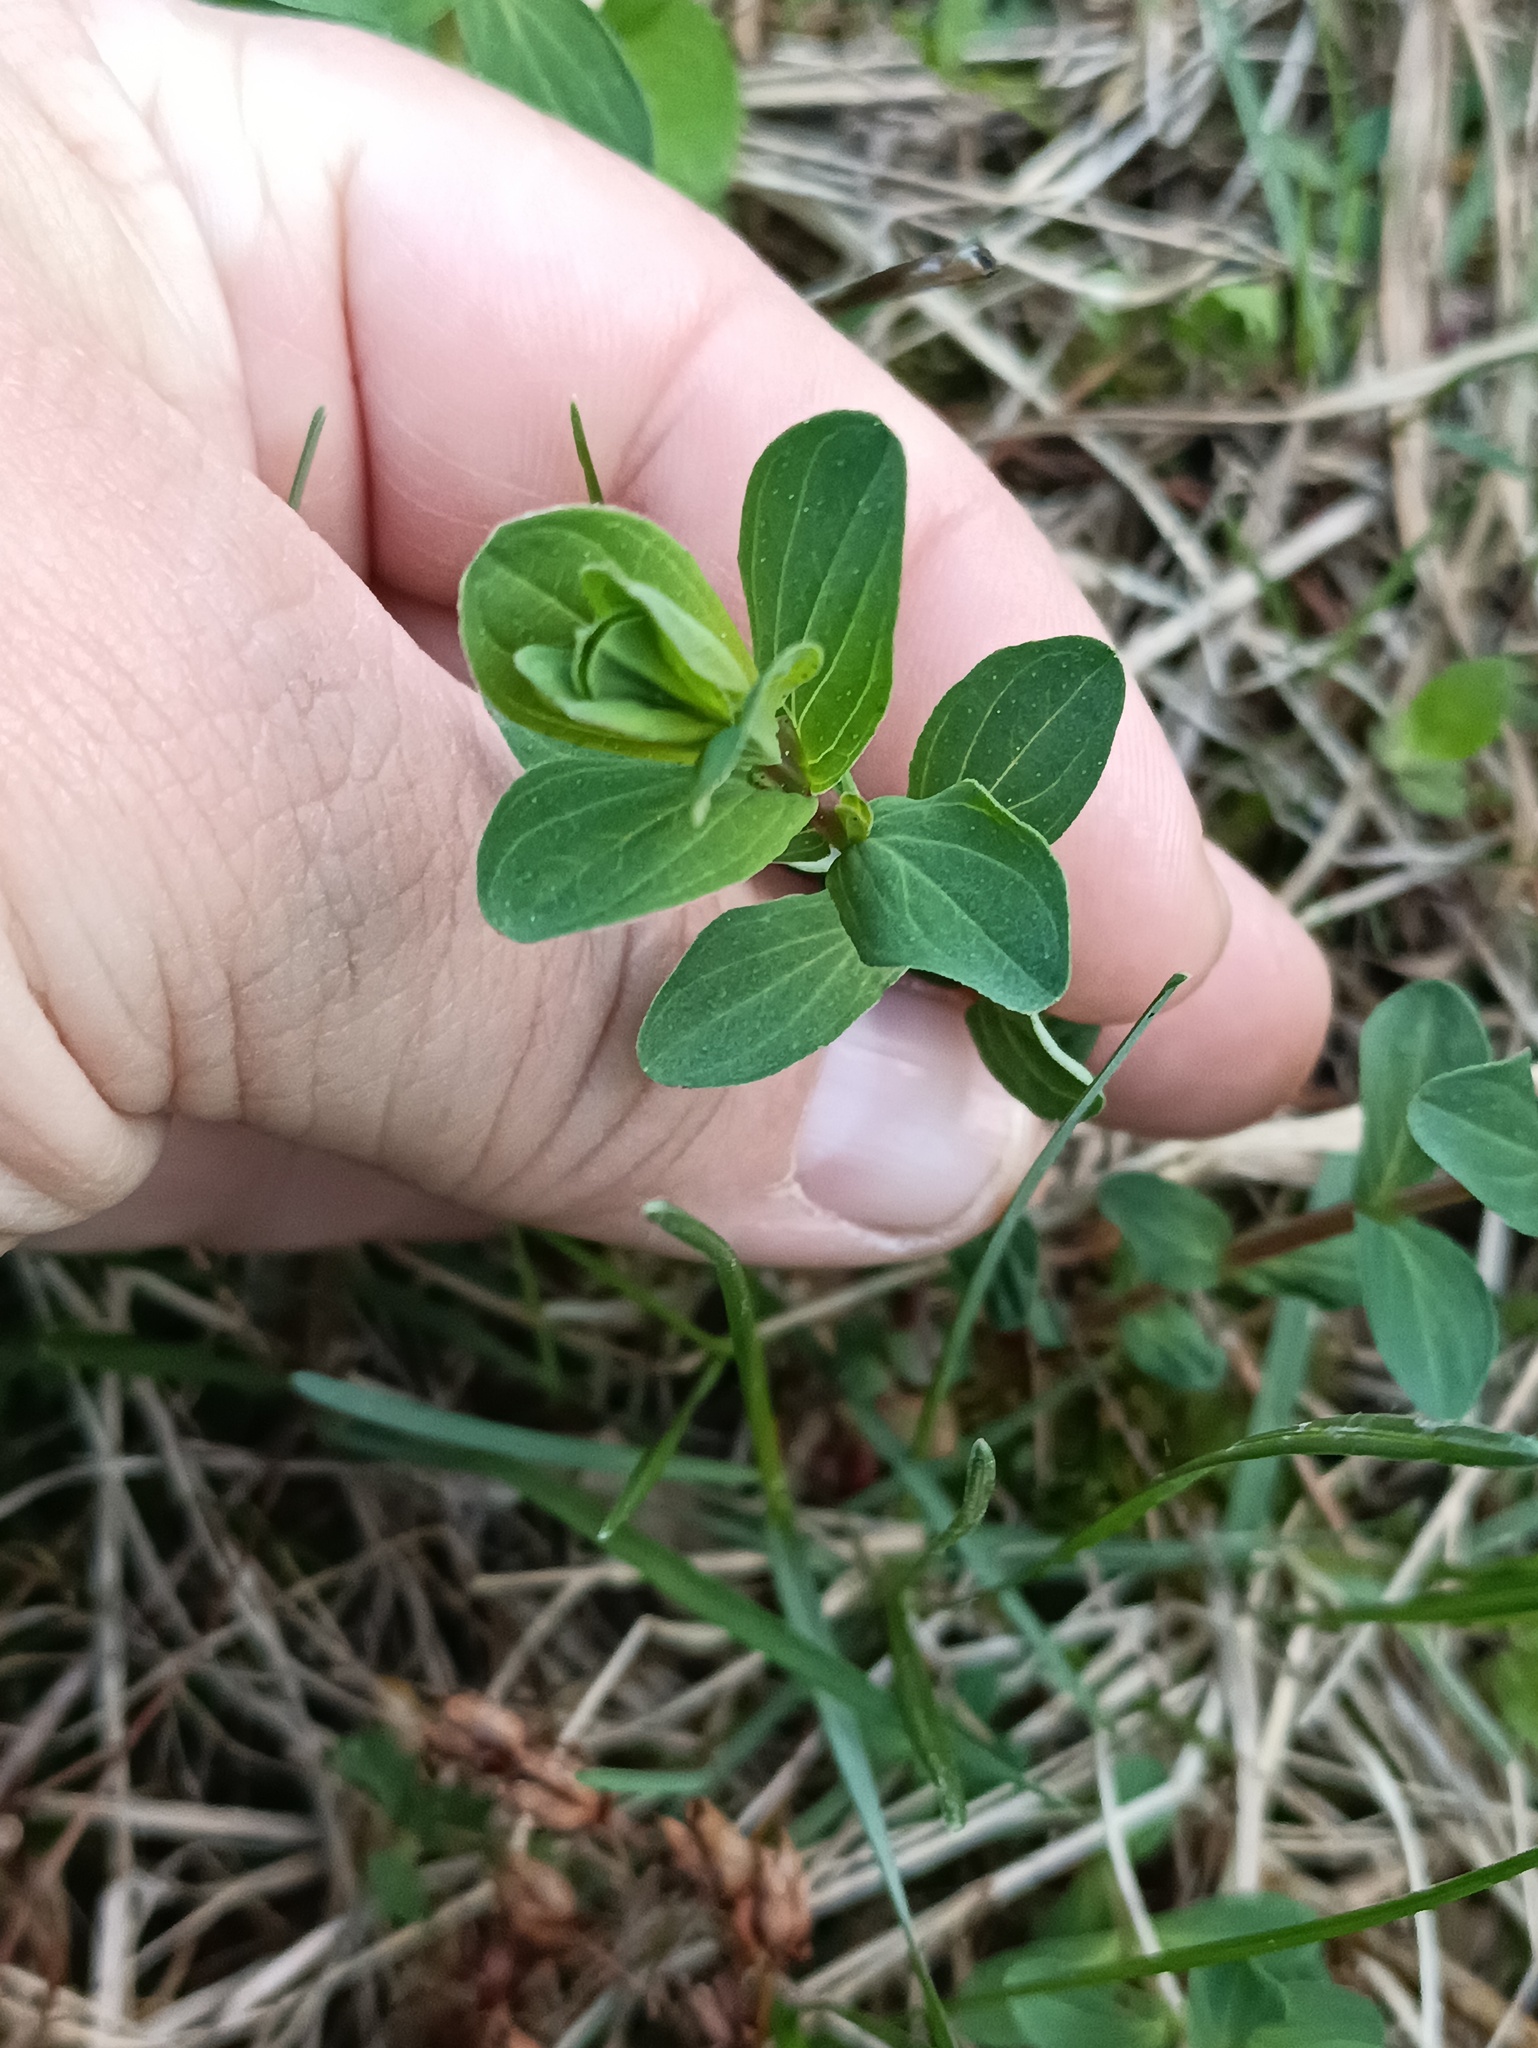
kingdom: Plantae
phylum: Tracheophyta
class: Magnoliopsida
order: Malpighiales
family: Hypericaceae
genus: Hypericum
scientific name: Hypericum perforatum
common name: Common st. johnswort
